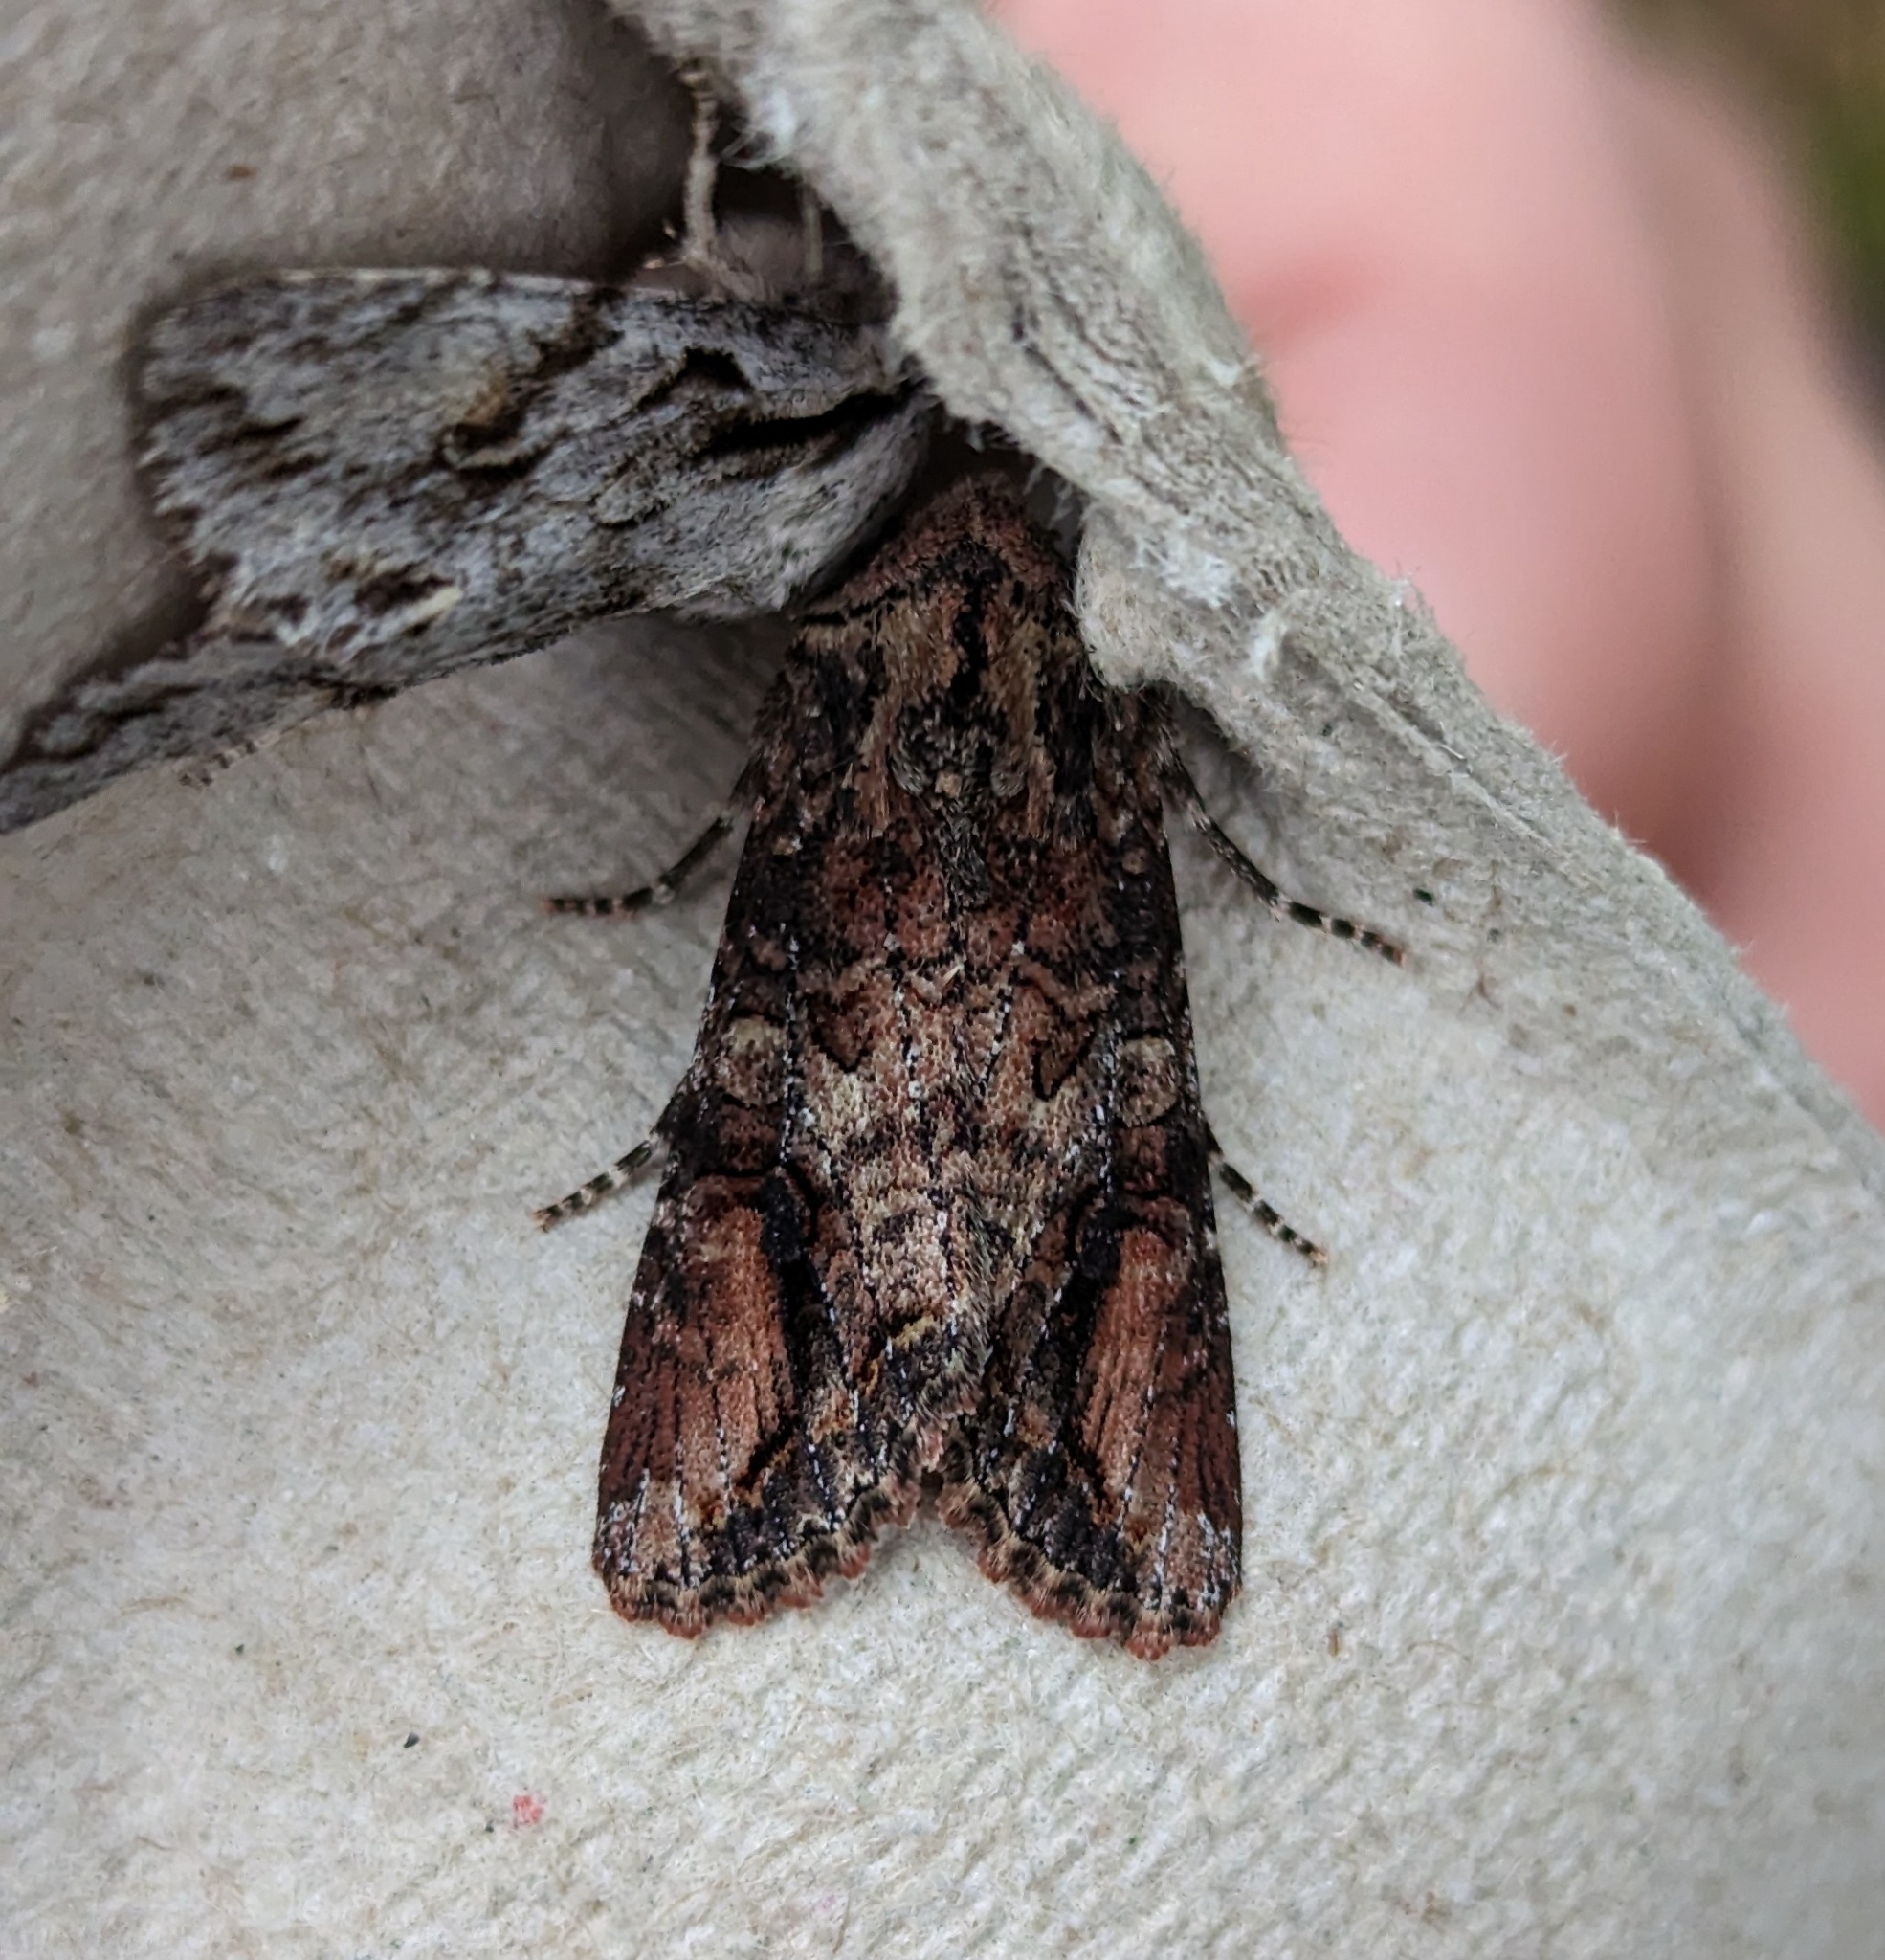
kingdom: Animalia
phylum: Arthropoda
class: Insecta
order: Lepidoptera
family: Noctuidae
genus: Egira
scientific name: Egira perlubens
